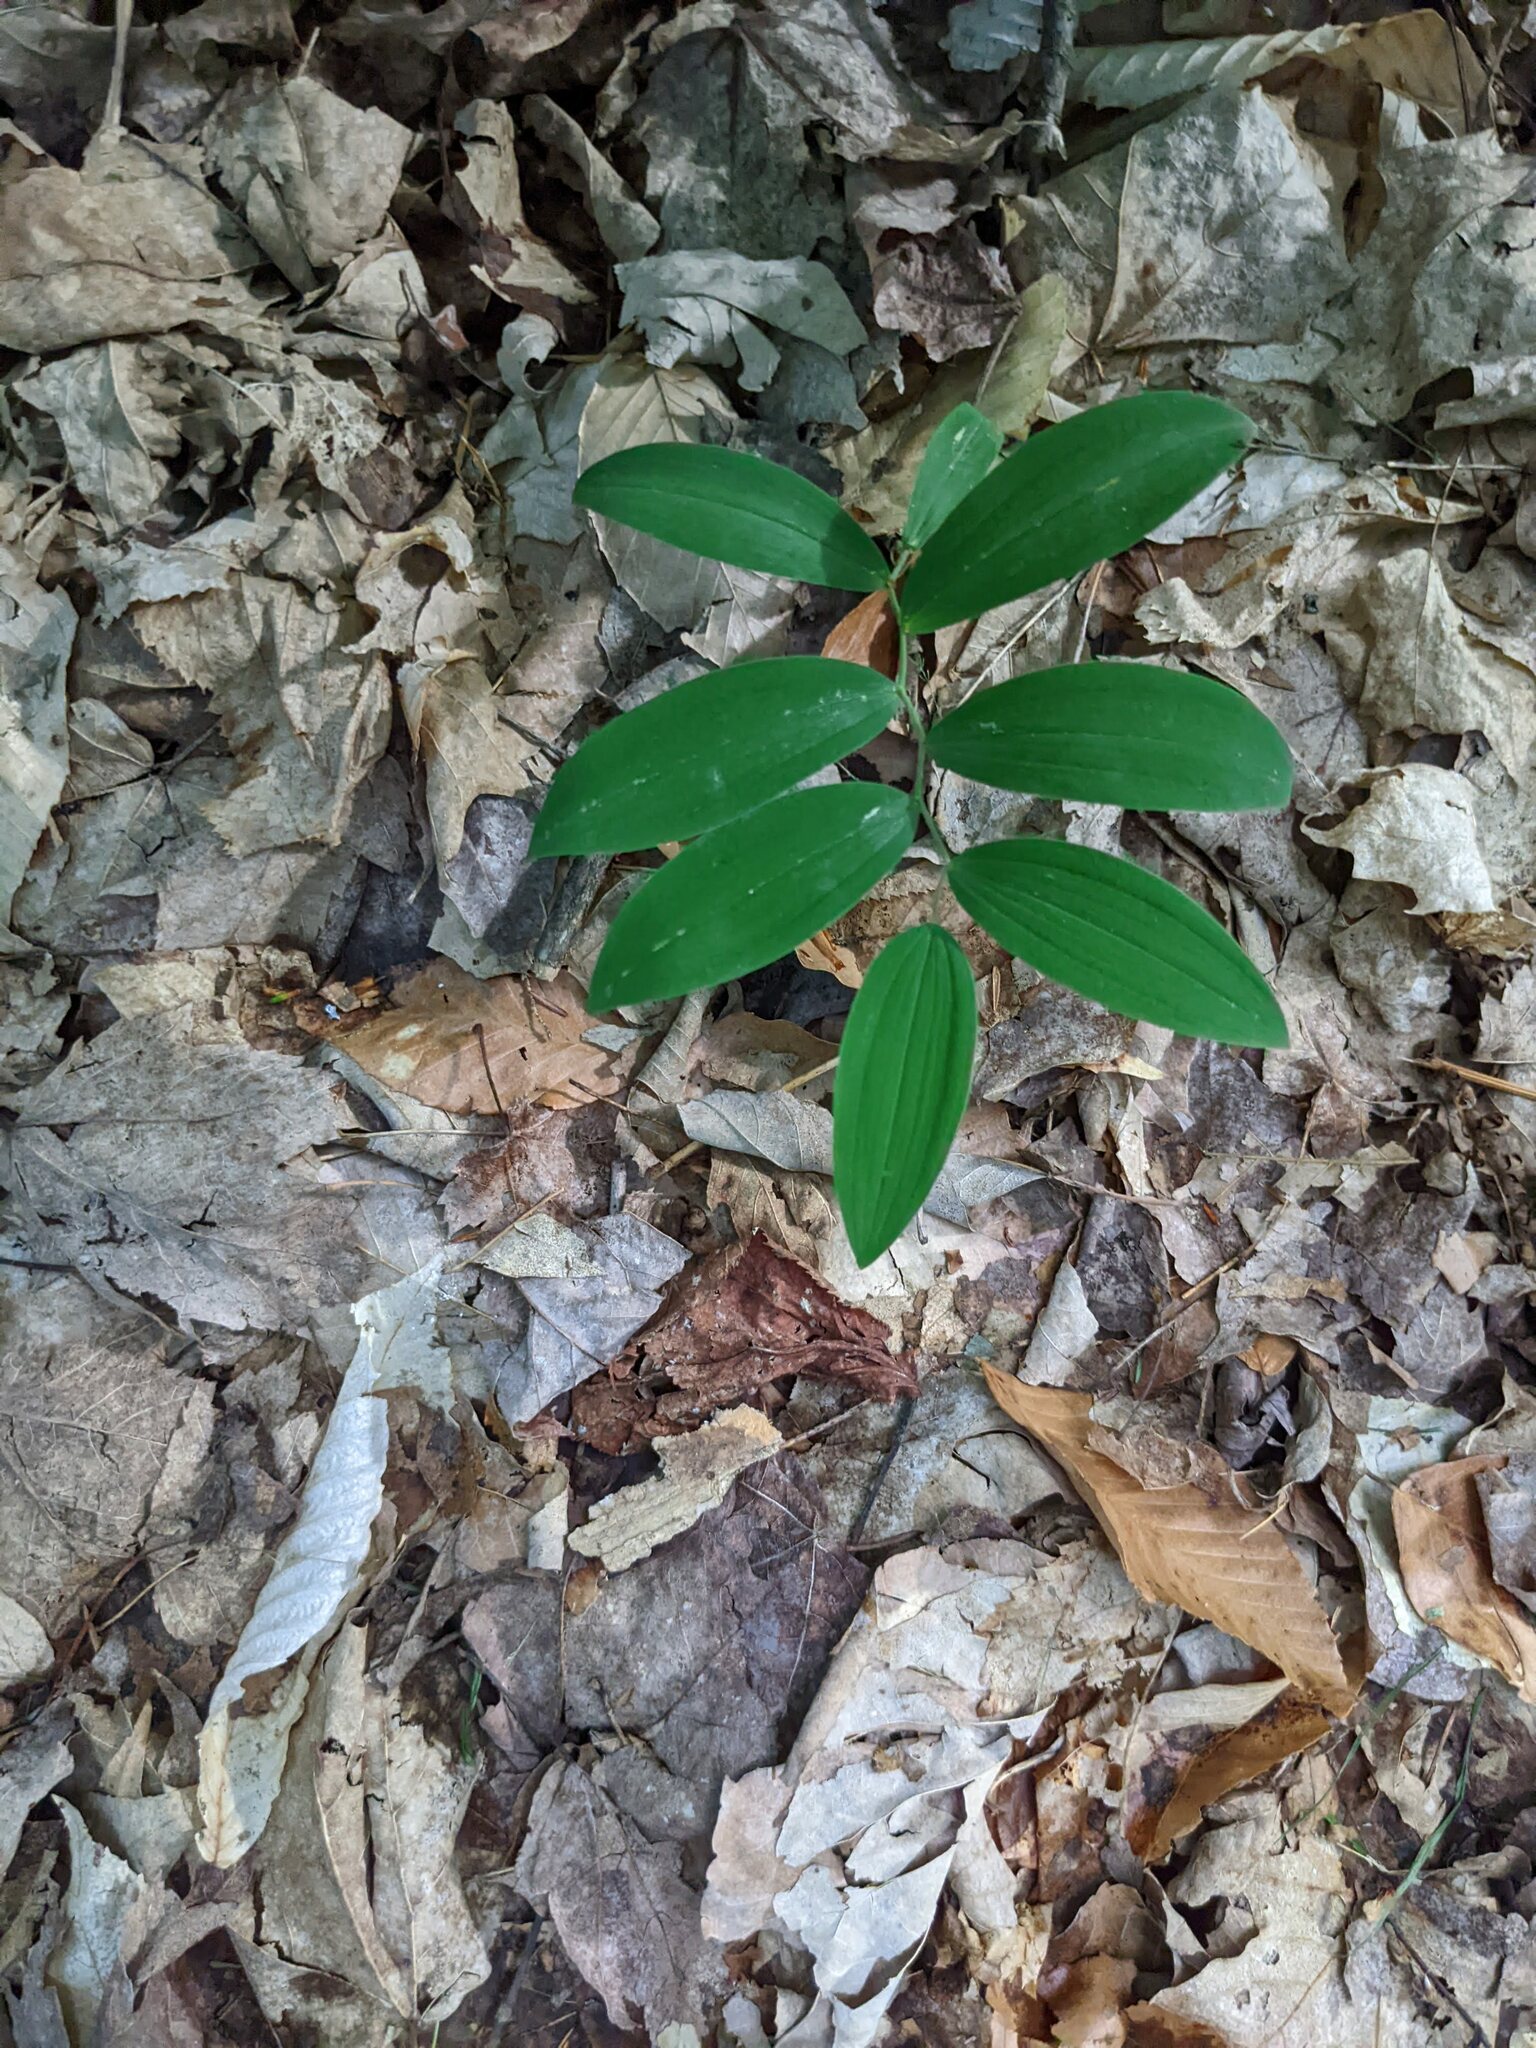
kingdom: Plantae
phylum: Tracheophyta
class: Liliopsida
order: Liliales
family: Colchicaceae
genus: Uvularia
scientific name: Uvularia sessilifolia
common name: Straw-lily
